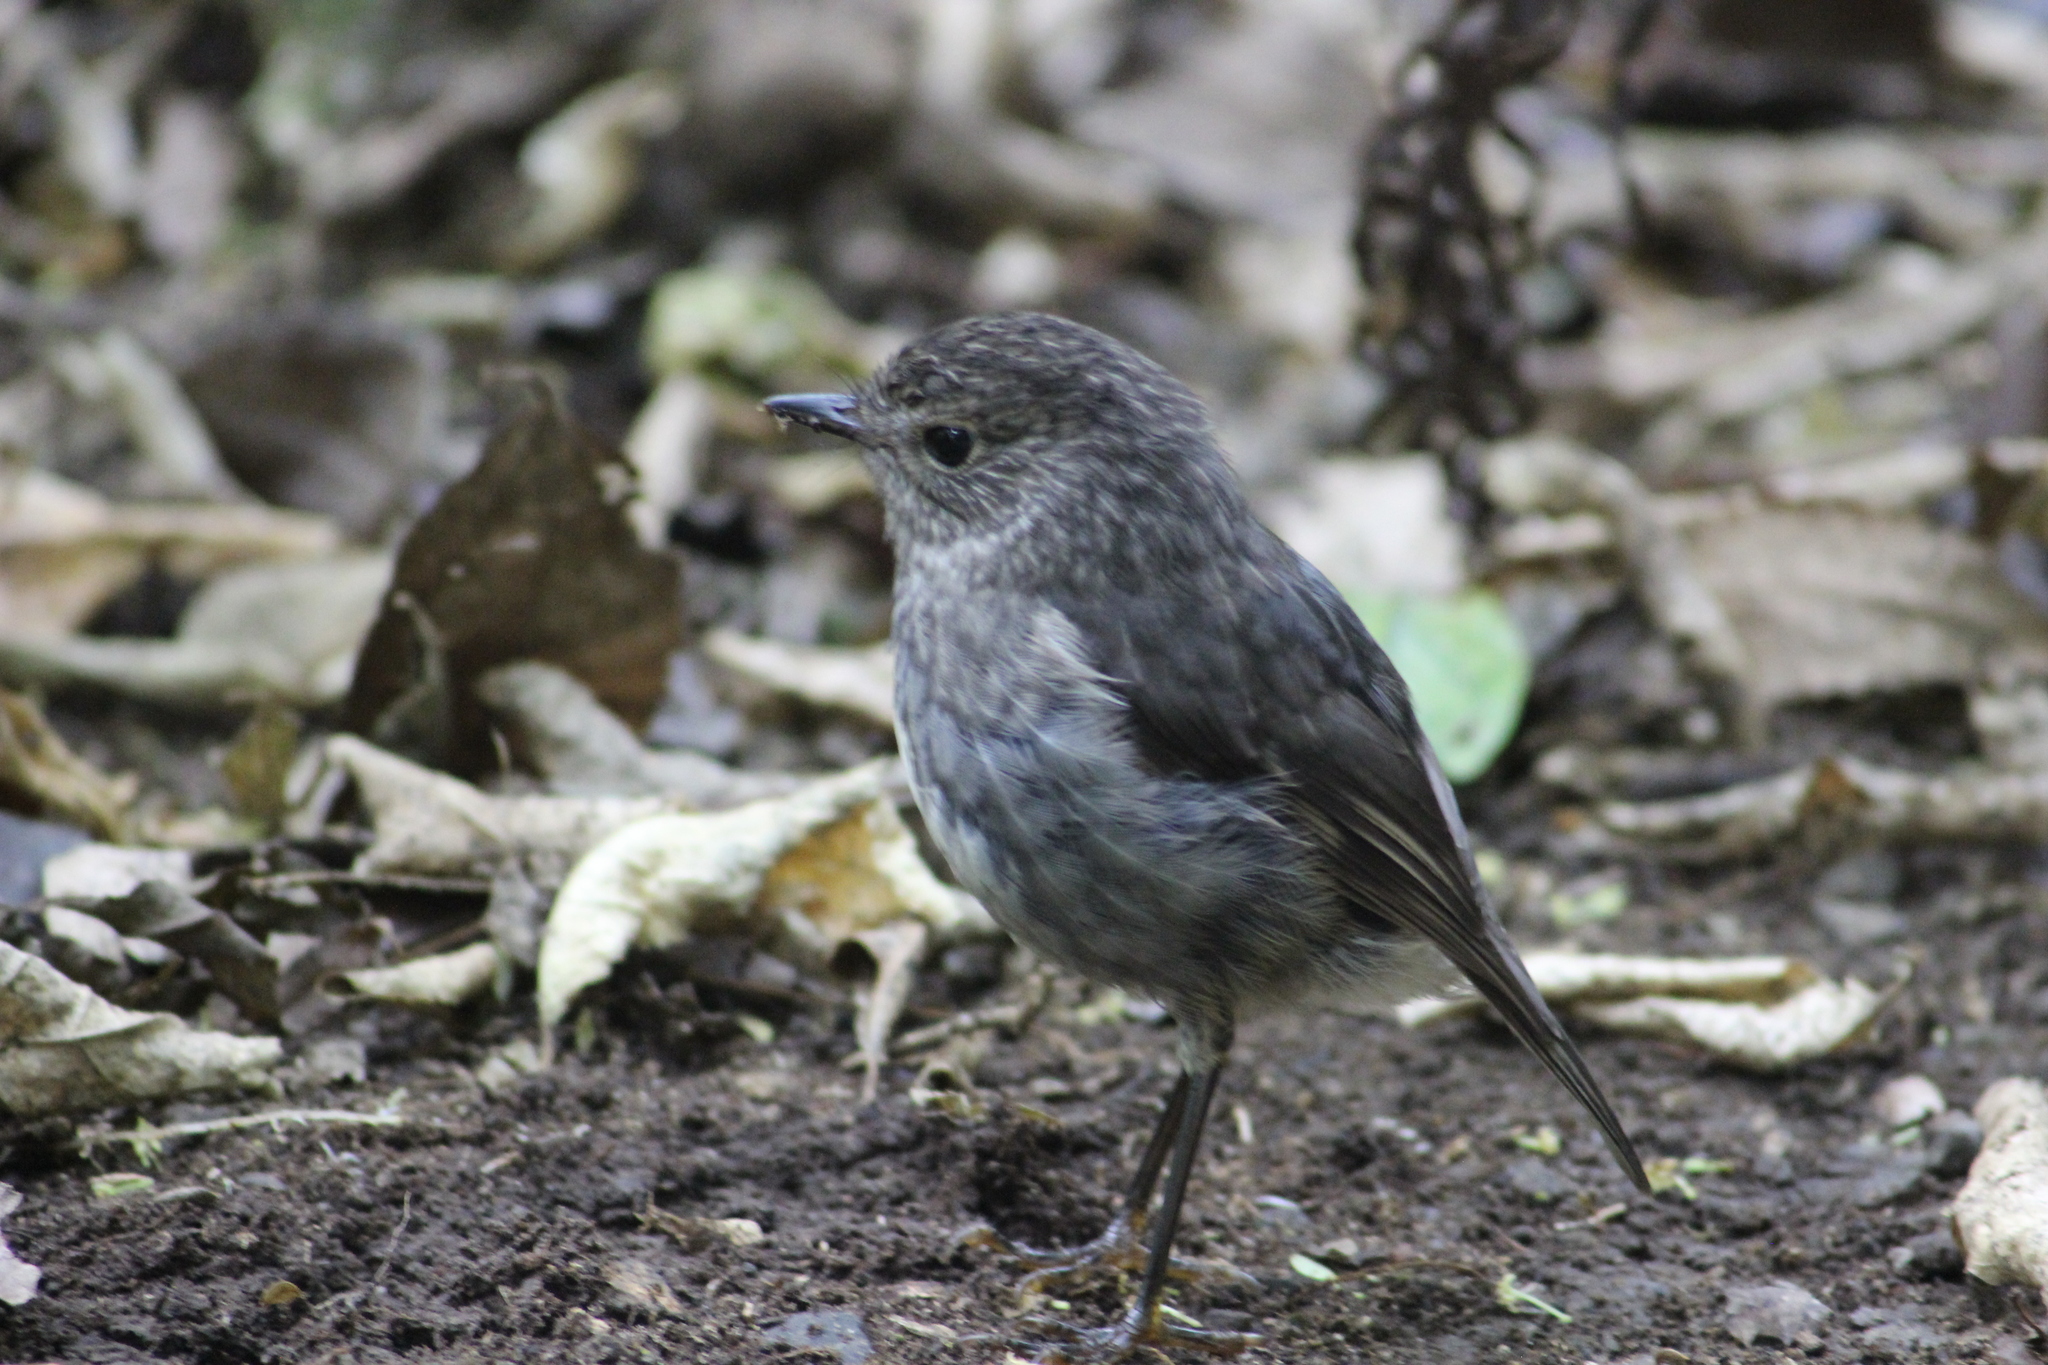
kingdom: Animalia
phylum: Chordata
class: Aves
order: Passeriformes
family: Petroicidae
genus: Petroica
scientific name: Petroica australis
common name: New zealand robin
